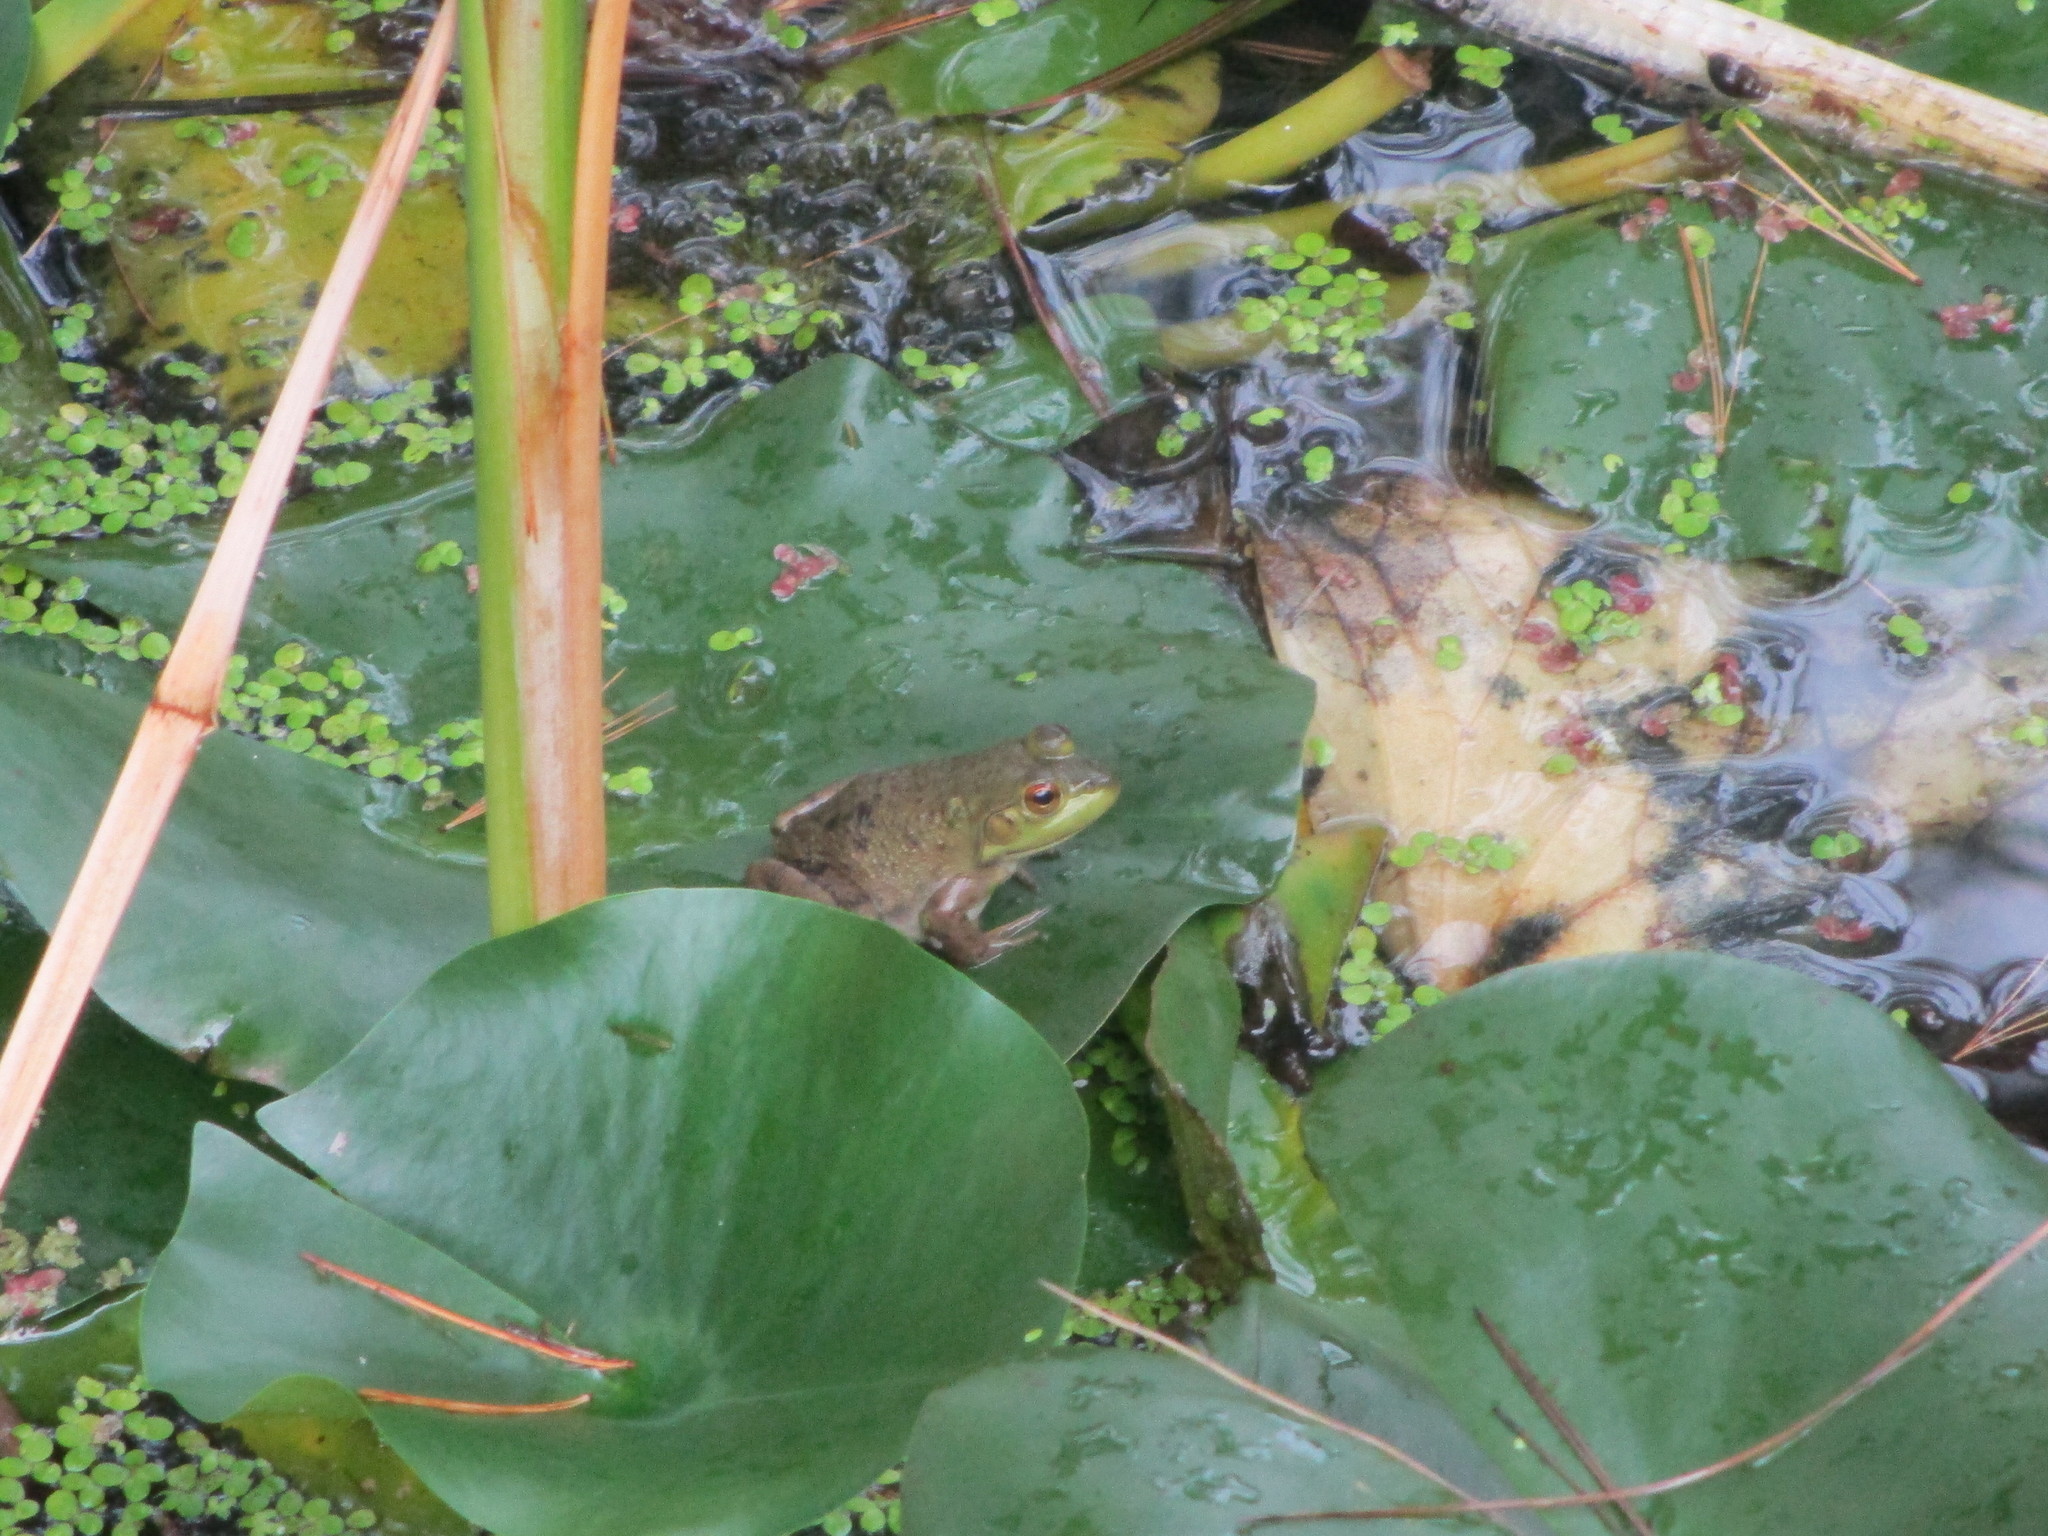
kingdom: Animalia
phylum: Chordata
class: Amphibia
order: Anura
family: Ranidae
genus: Lithobates
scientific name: Lithobates catesbeianus
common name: American bullfrog
